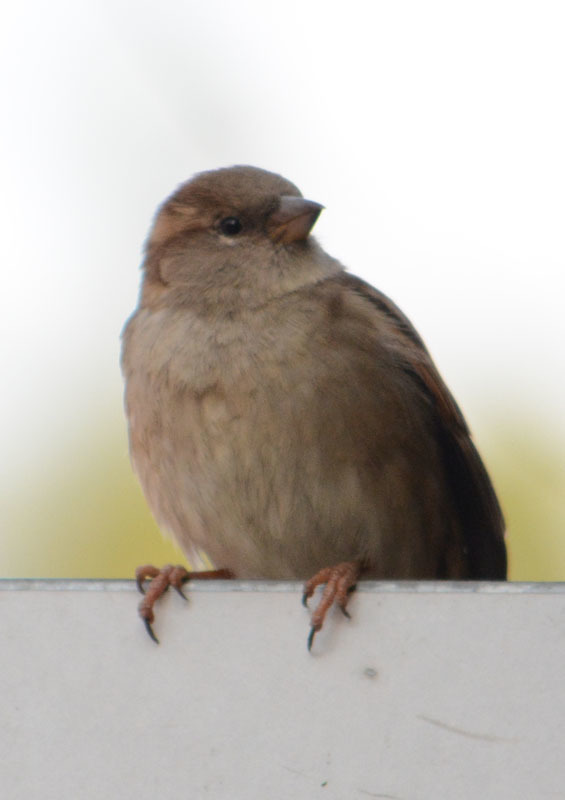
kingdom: Animalia
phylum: Chordata
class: Aves
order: Passeriformes
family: Passeridae
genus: Passer
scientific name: Passer domesticus
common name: House sparrow
